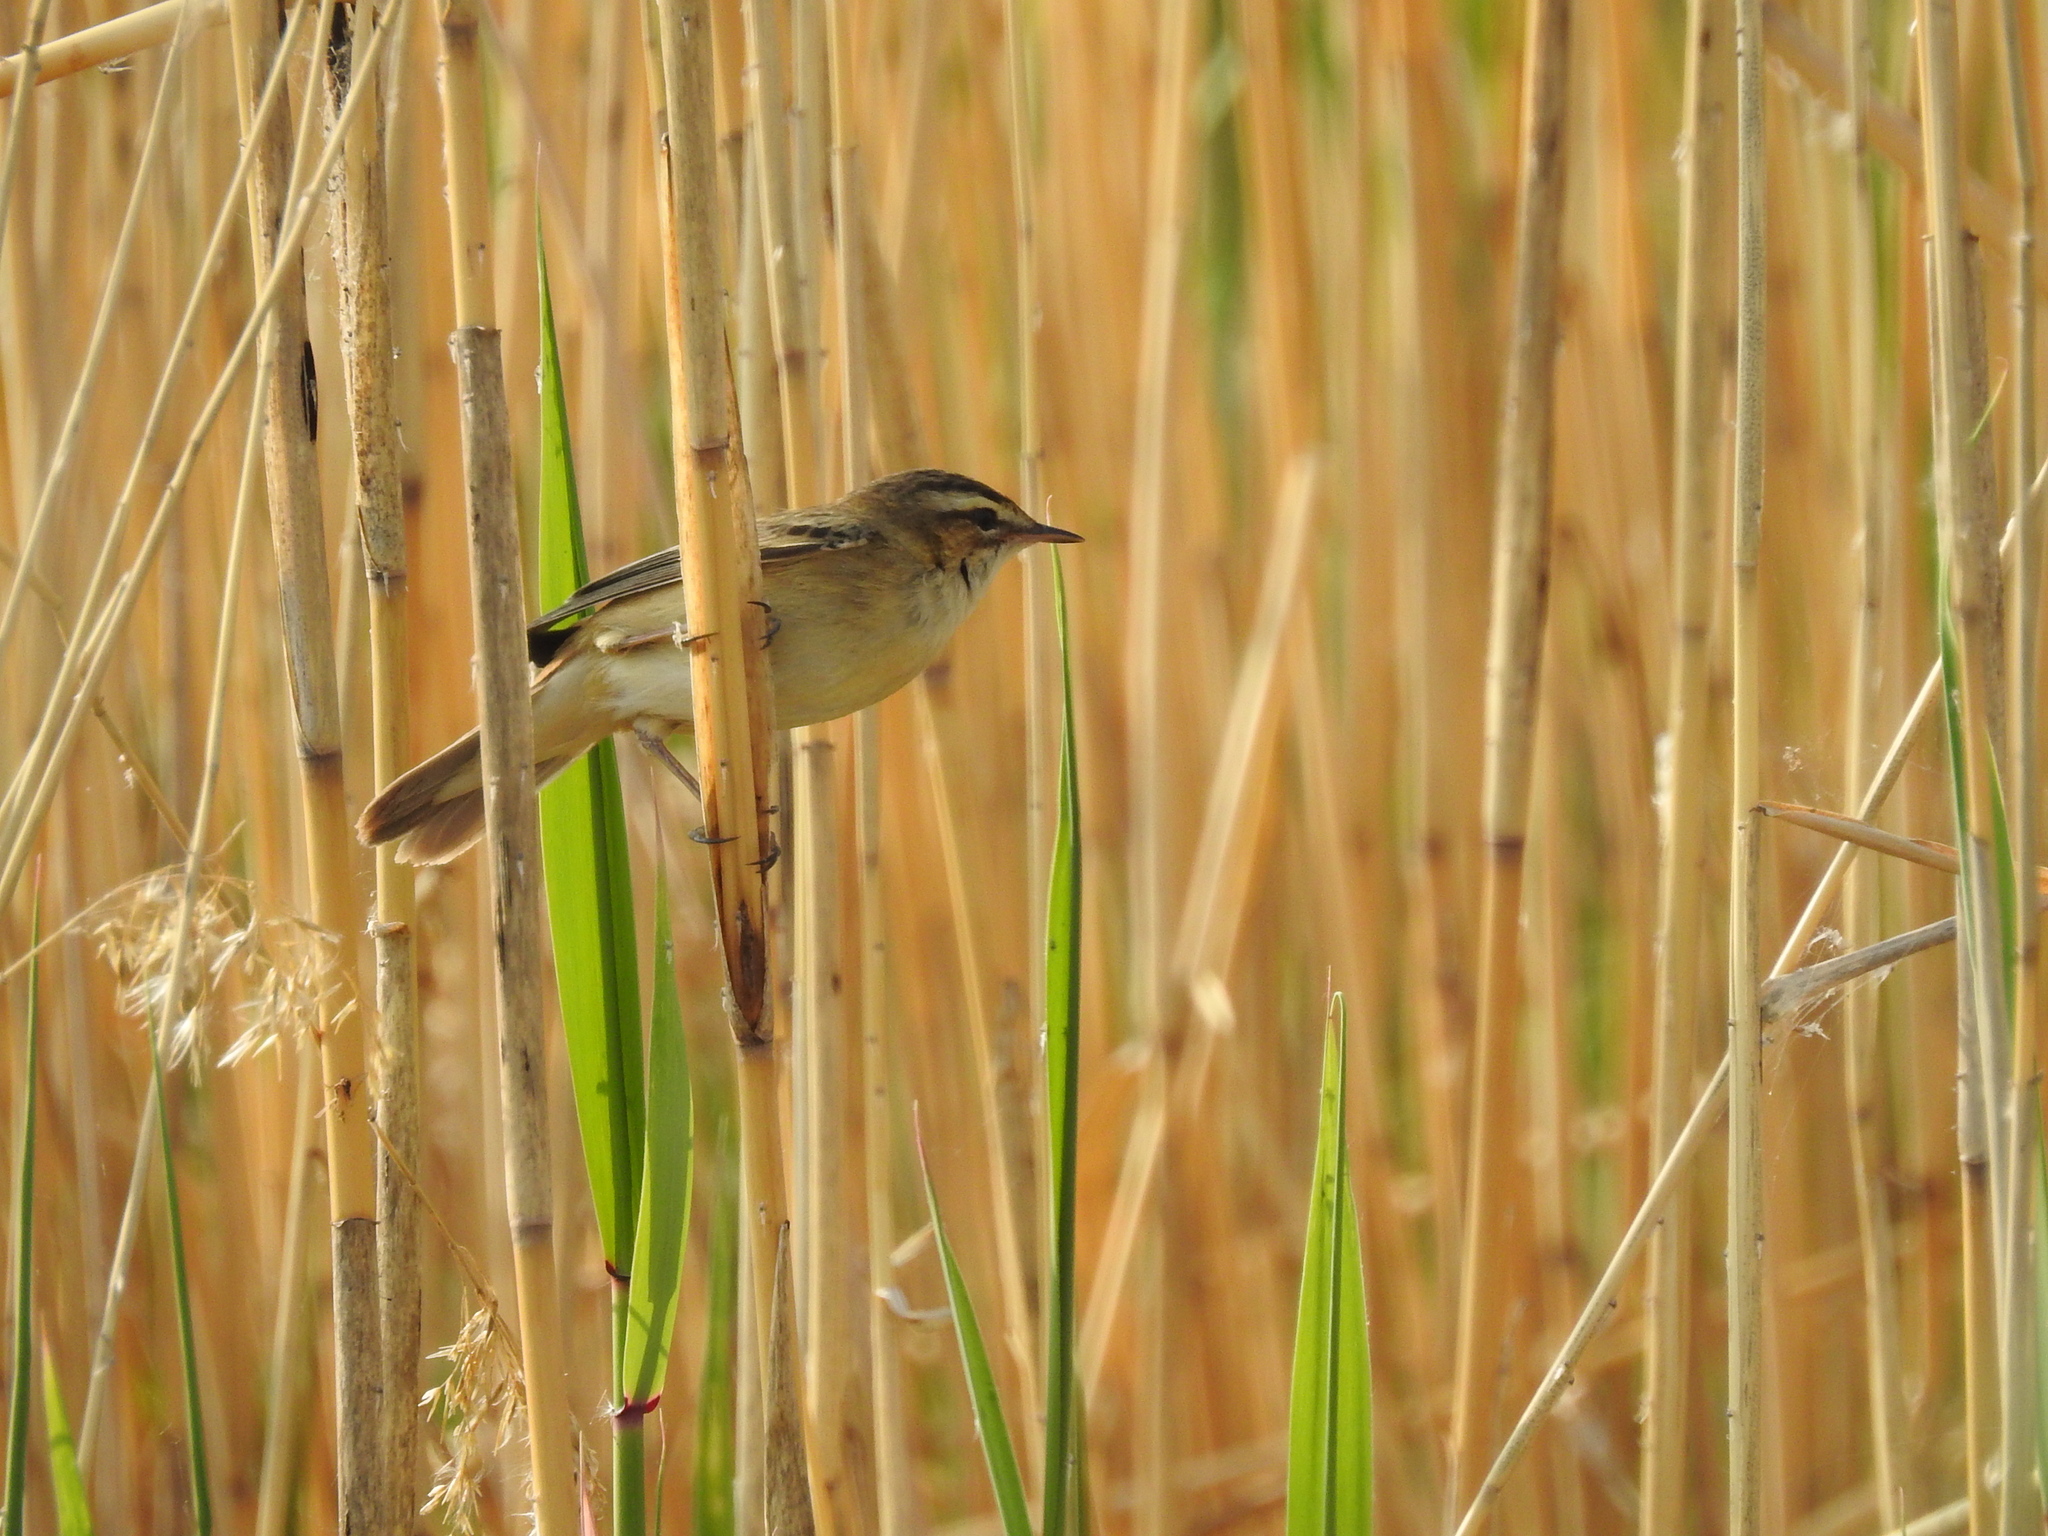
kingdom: Animalia
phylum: Chordata
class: Aves
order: Passeriformes
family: Acrocephalidae
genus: Acrocephalus
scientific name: Acrocephalus schoenobaenus
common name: Sedge warbler
